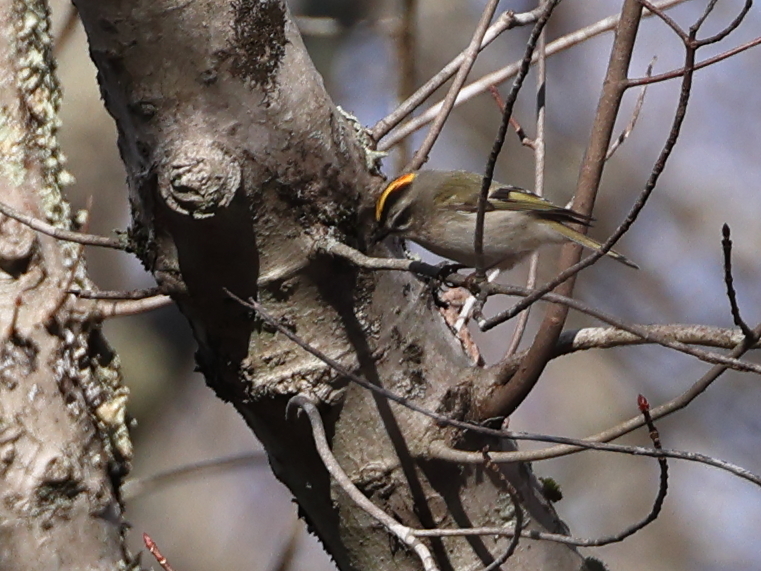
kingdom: Animalia
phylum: Chordata
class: Aves
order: Passeriformes
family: Regulidae
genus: Regulus
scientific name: Regulus satrapa
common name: Golden-crowned kinglet
